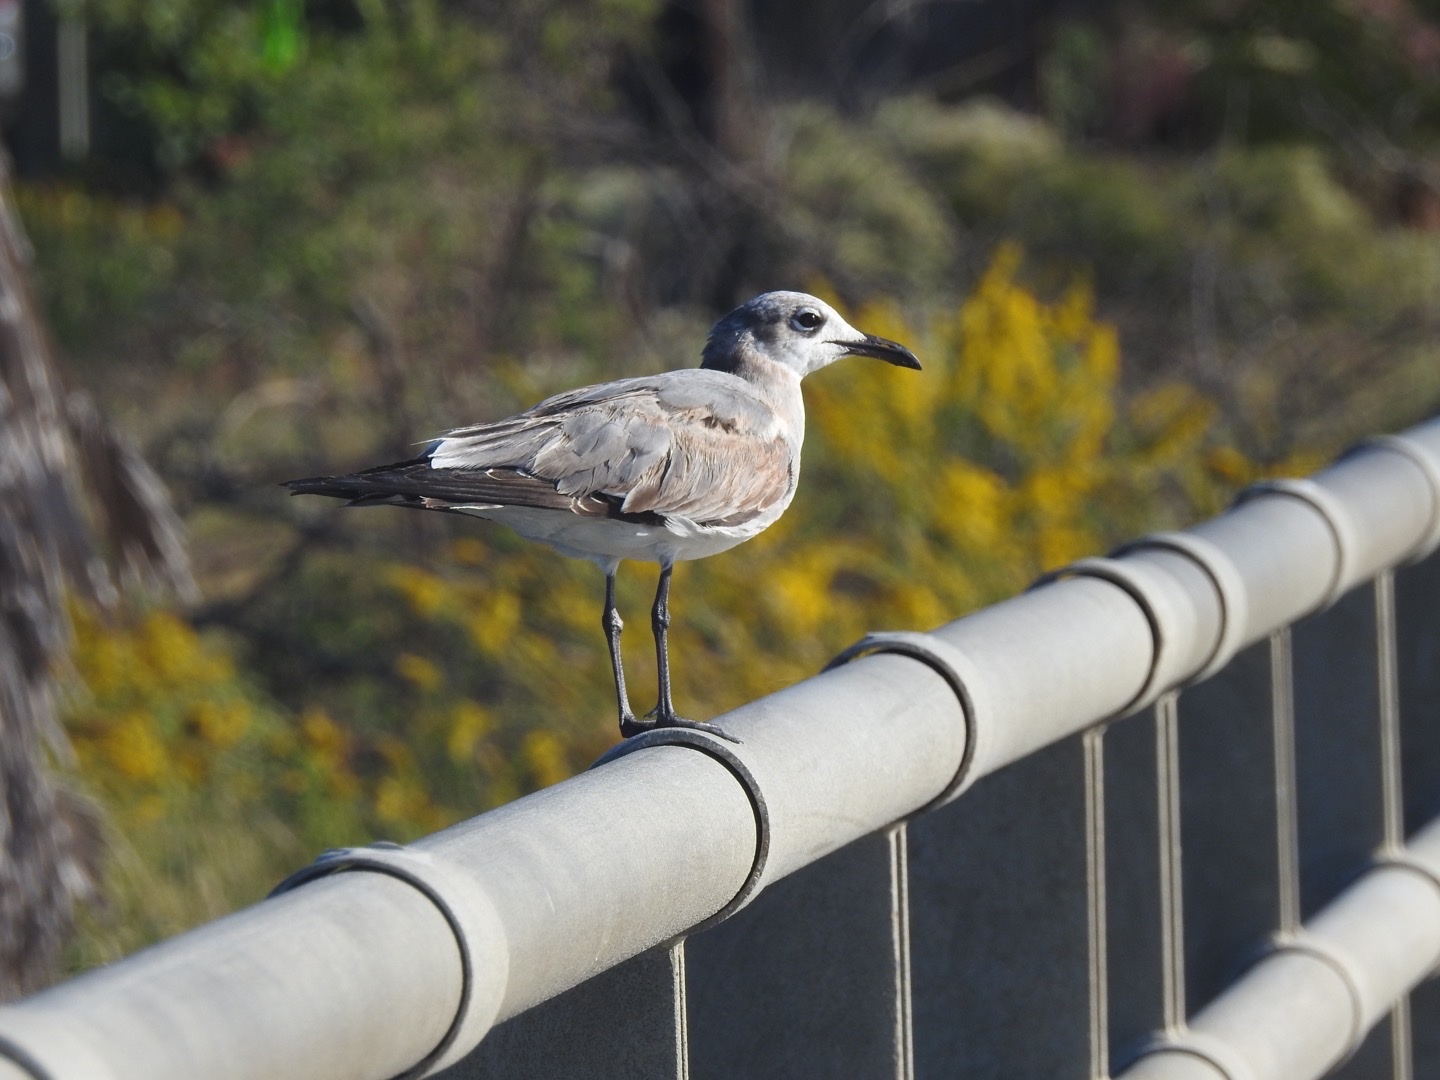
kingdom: Animalia
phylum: Chordata
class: Aves
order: Charadriiformes
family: Laridae
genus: Leucophaeus
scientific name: Leucophaeus atricilla
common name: Laughing gull
